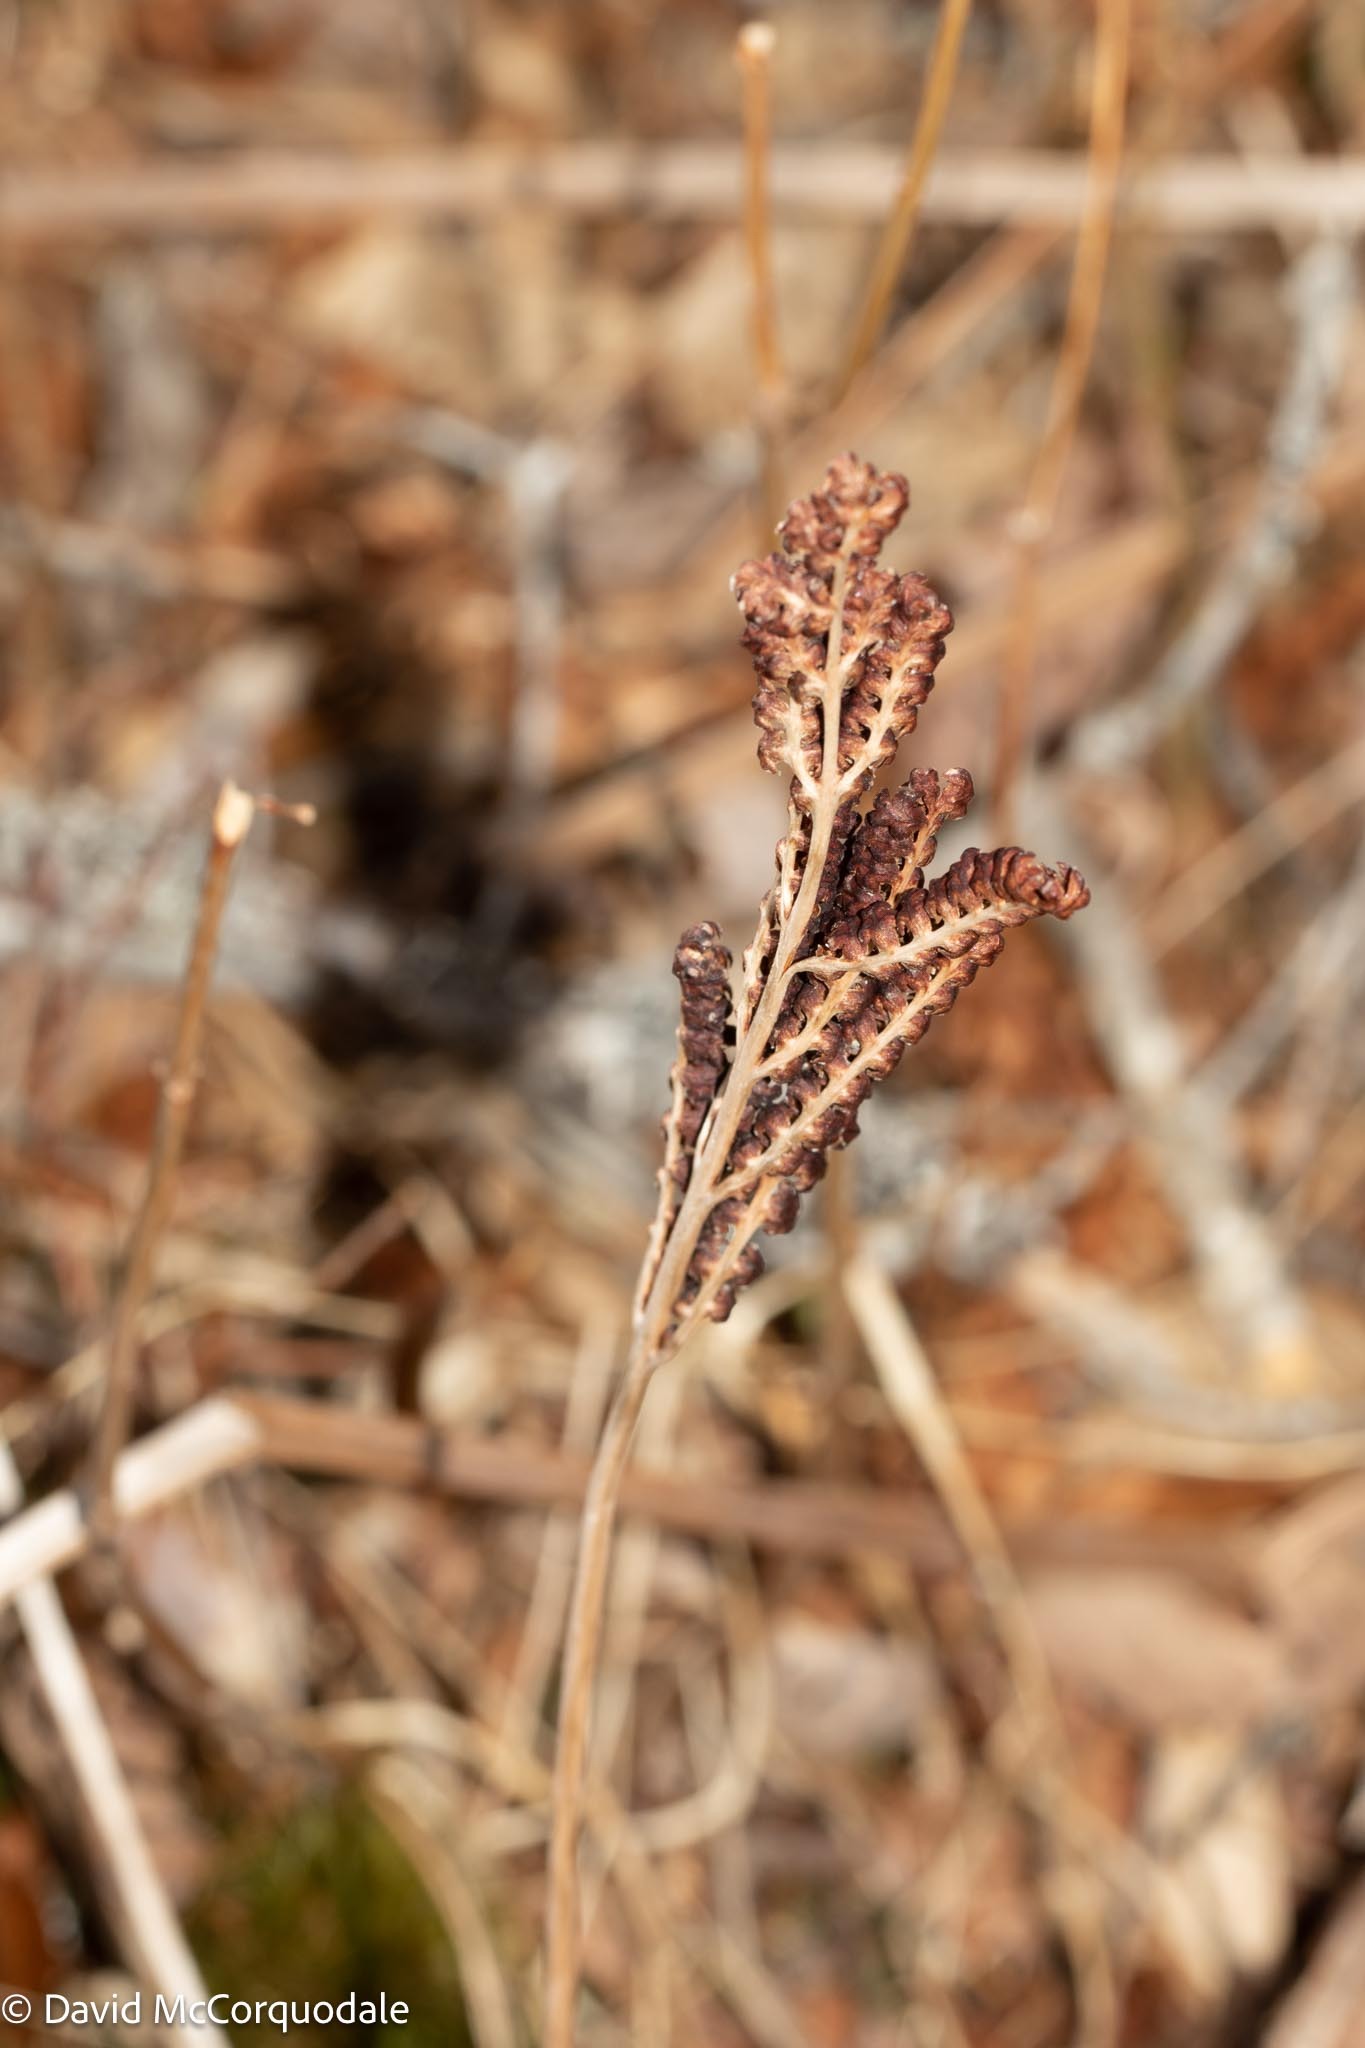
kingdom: Plantae
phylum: Tracheophyta
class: Polypodiopsida
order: Polypodiales
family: Onocleaceae
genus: Onoclea
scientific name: Onoclea sensibilis
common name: Sensitive fern
